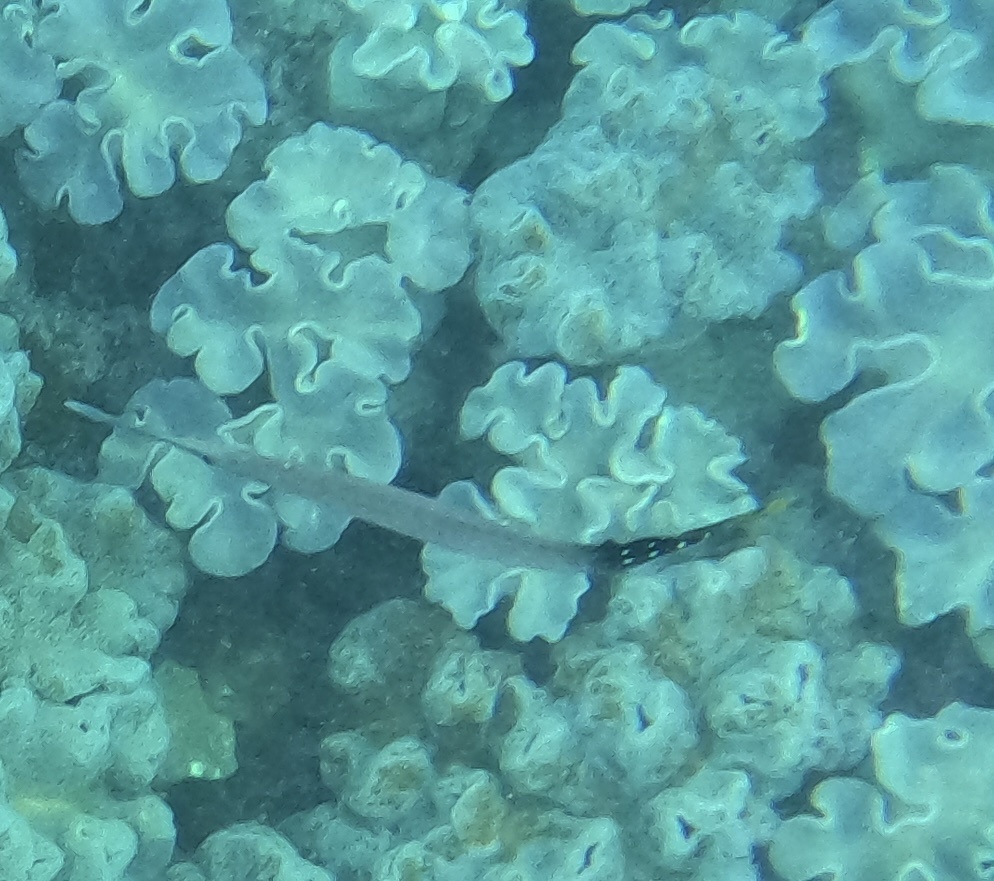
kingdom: Animalia
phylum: Chordata
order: Syngnathiformes
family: Aulostomidae
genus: Aulostomus
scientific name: Aulostomus chinensis
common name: Chinese trumpetfish
